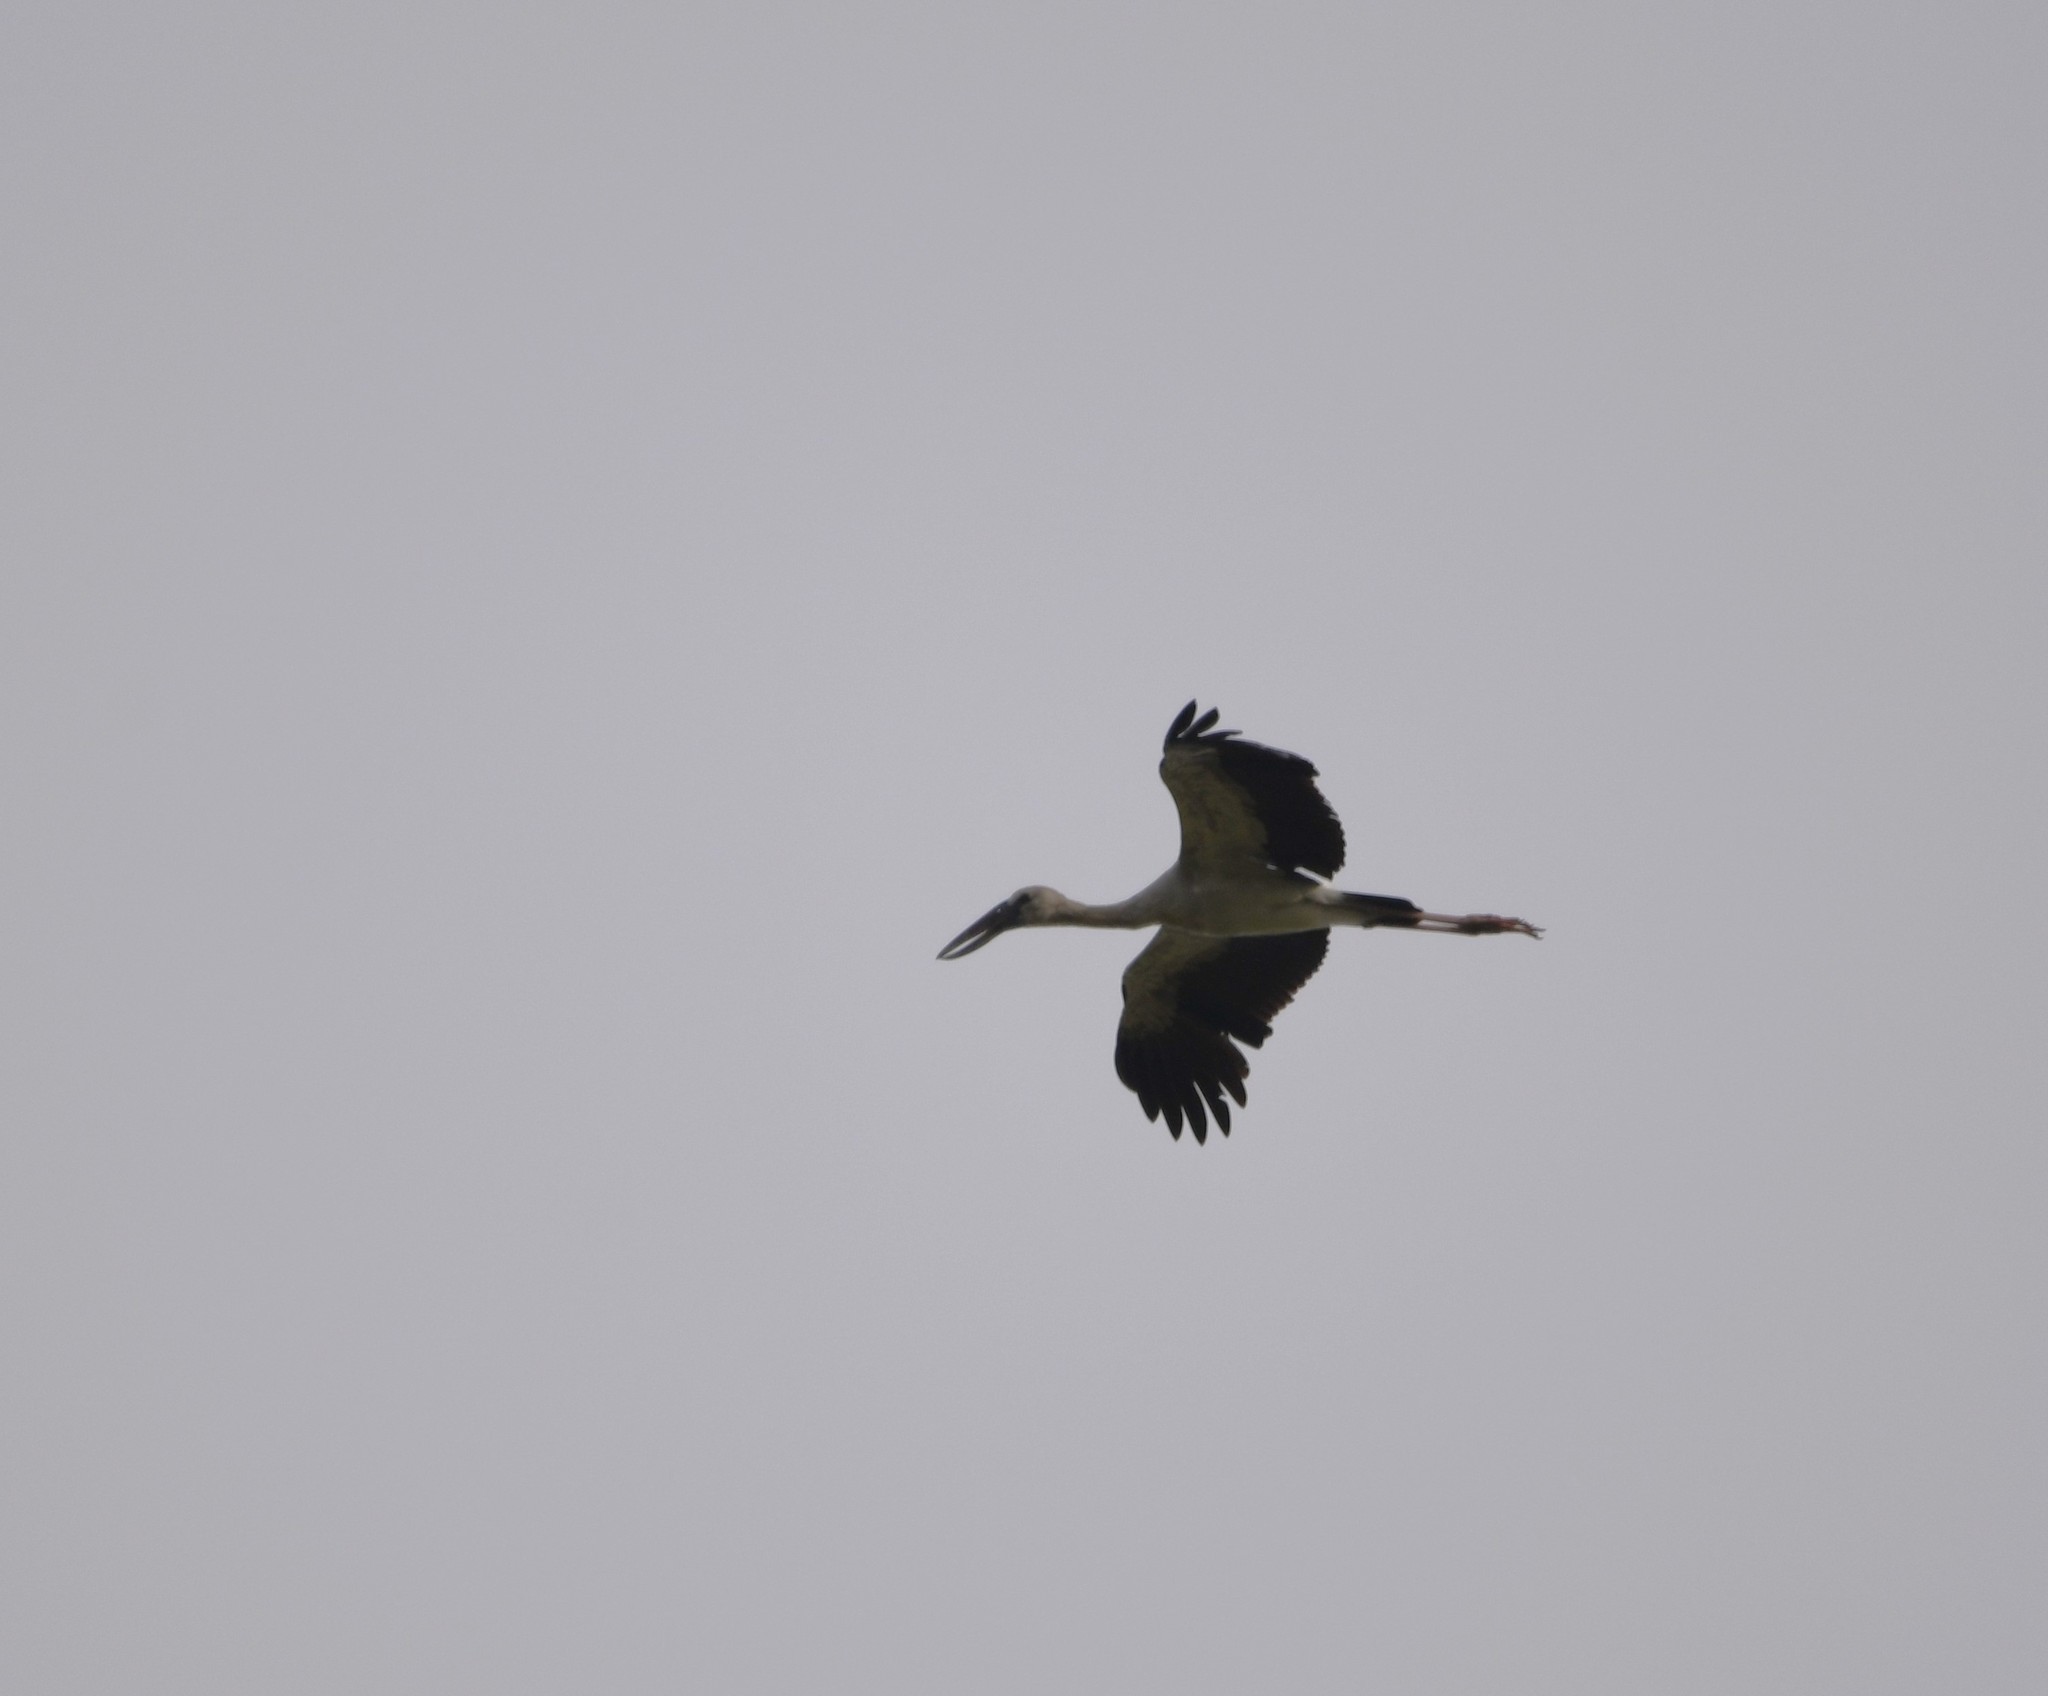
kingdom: Animalia
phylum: Chordata
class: Aves
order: Ciconiiformes
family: Ciconiidae
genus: Anastomus
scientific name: Anastomus oscitans
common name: Asian openbill
